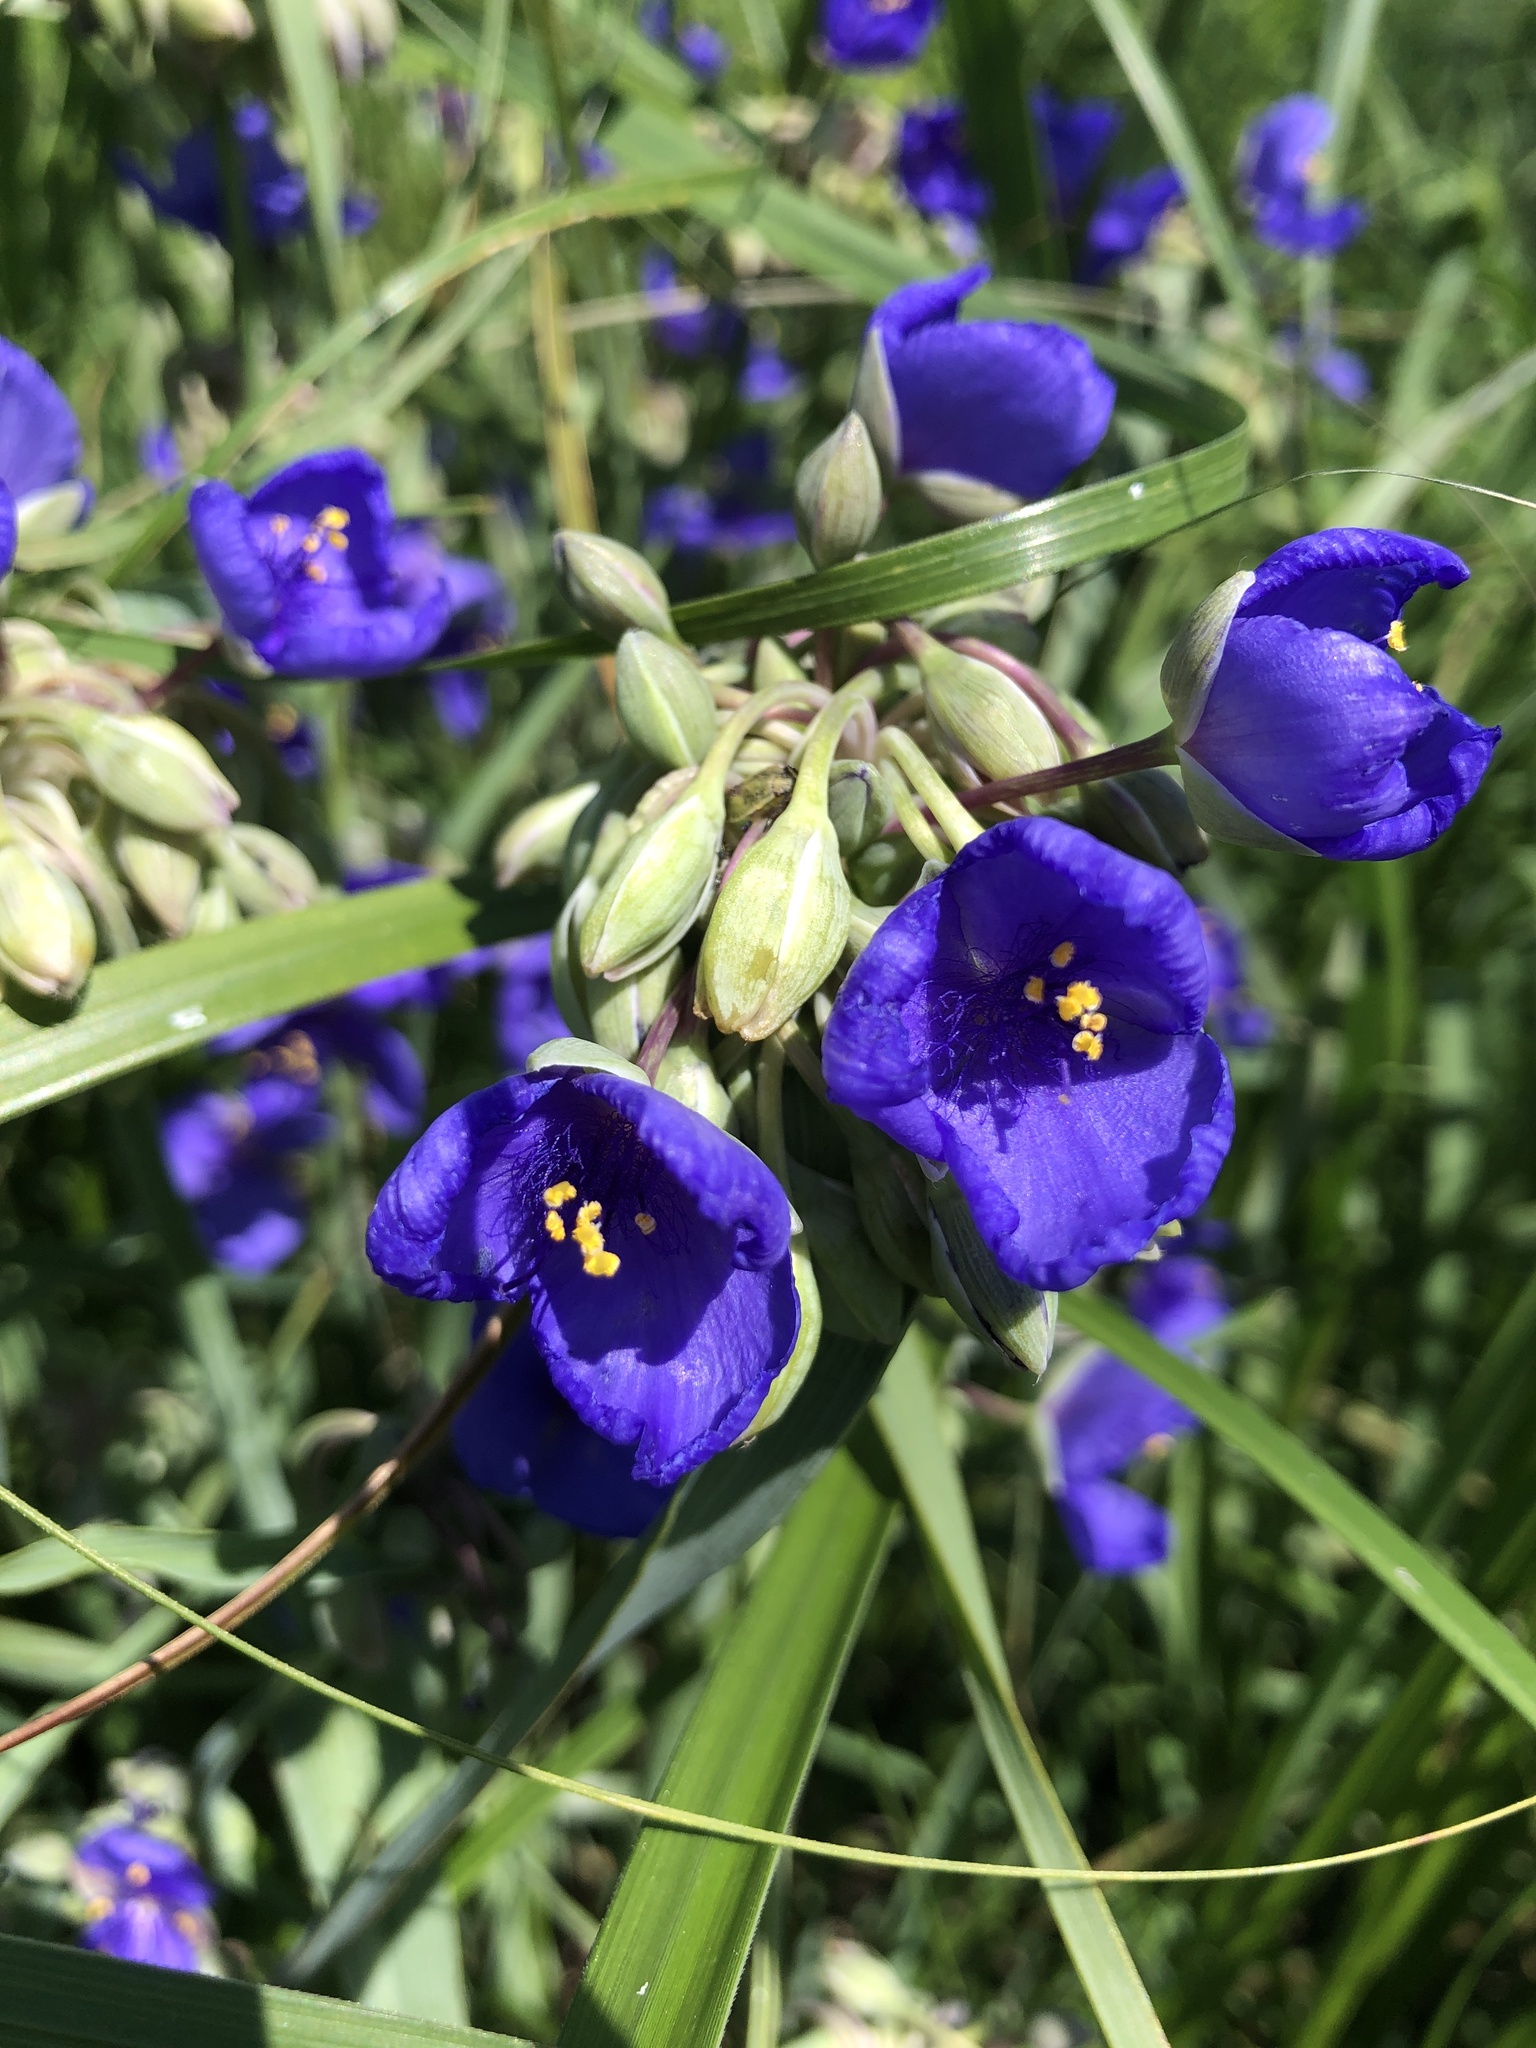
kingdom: Plantae
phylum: Tracheophyta
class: Liliopsida
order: Commelinales
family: Commelinaceae
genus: Tradescantia
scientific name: Tradescantia ohiensis
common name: Ohio spiderwort
